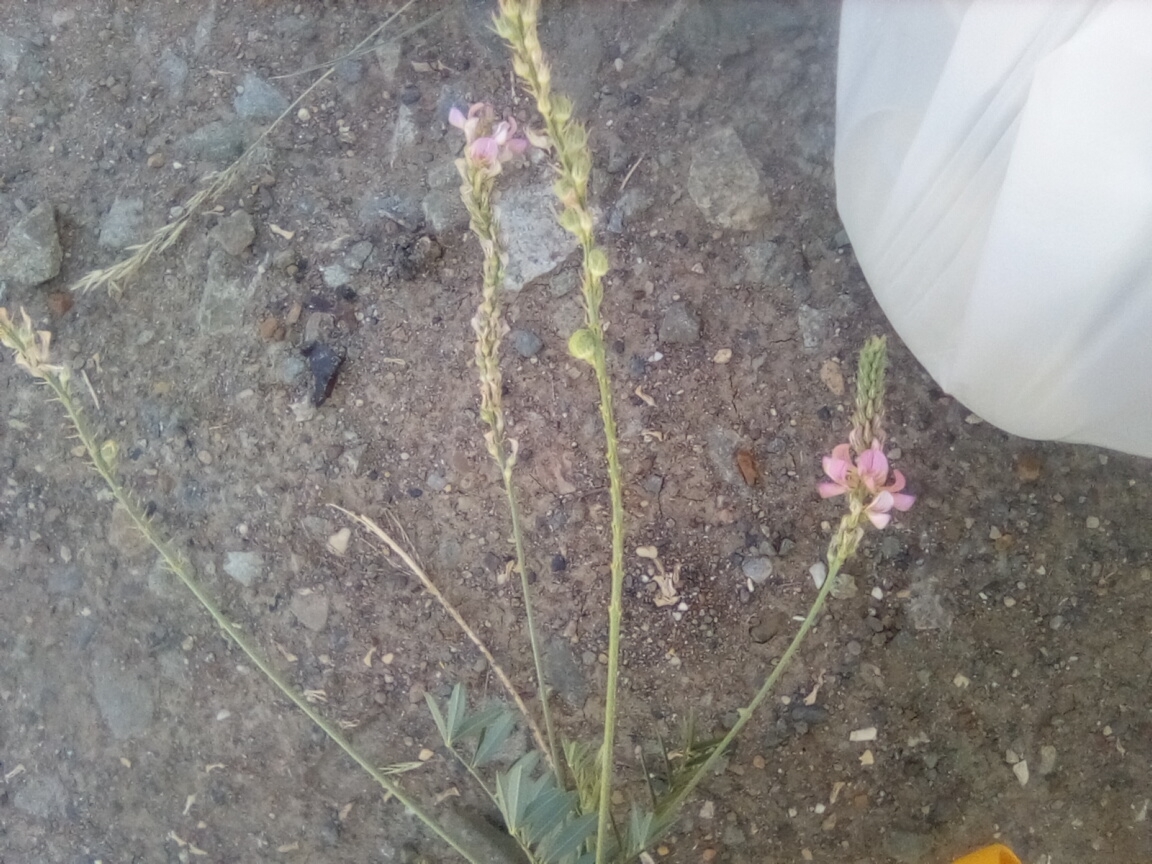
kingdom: Plantae
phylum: Tracheophyta
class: Magnoliopsida
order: Fabales
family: Fabaceae
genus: Onobrychis
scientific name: Onobrychis arenaria
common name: Sand esparcet
